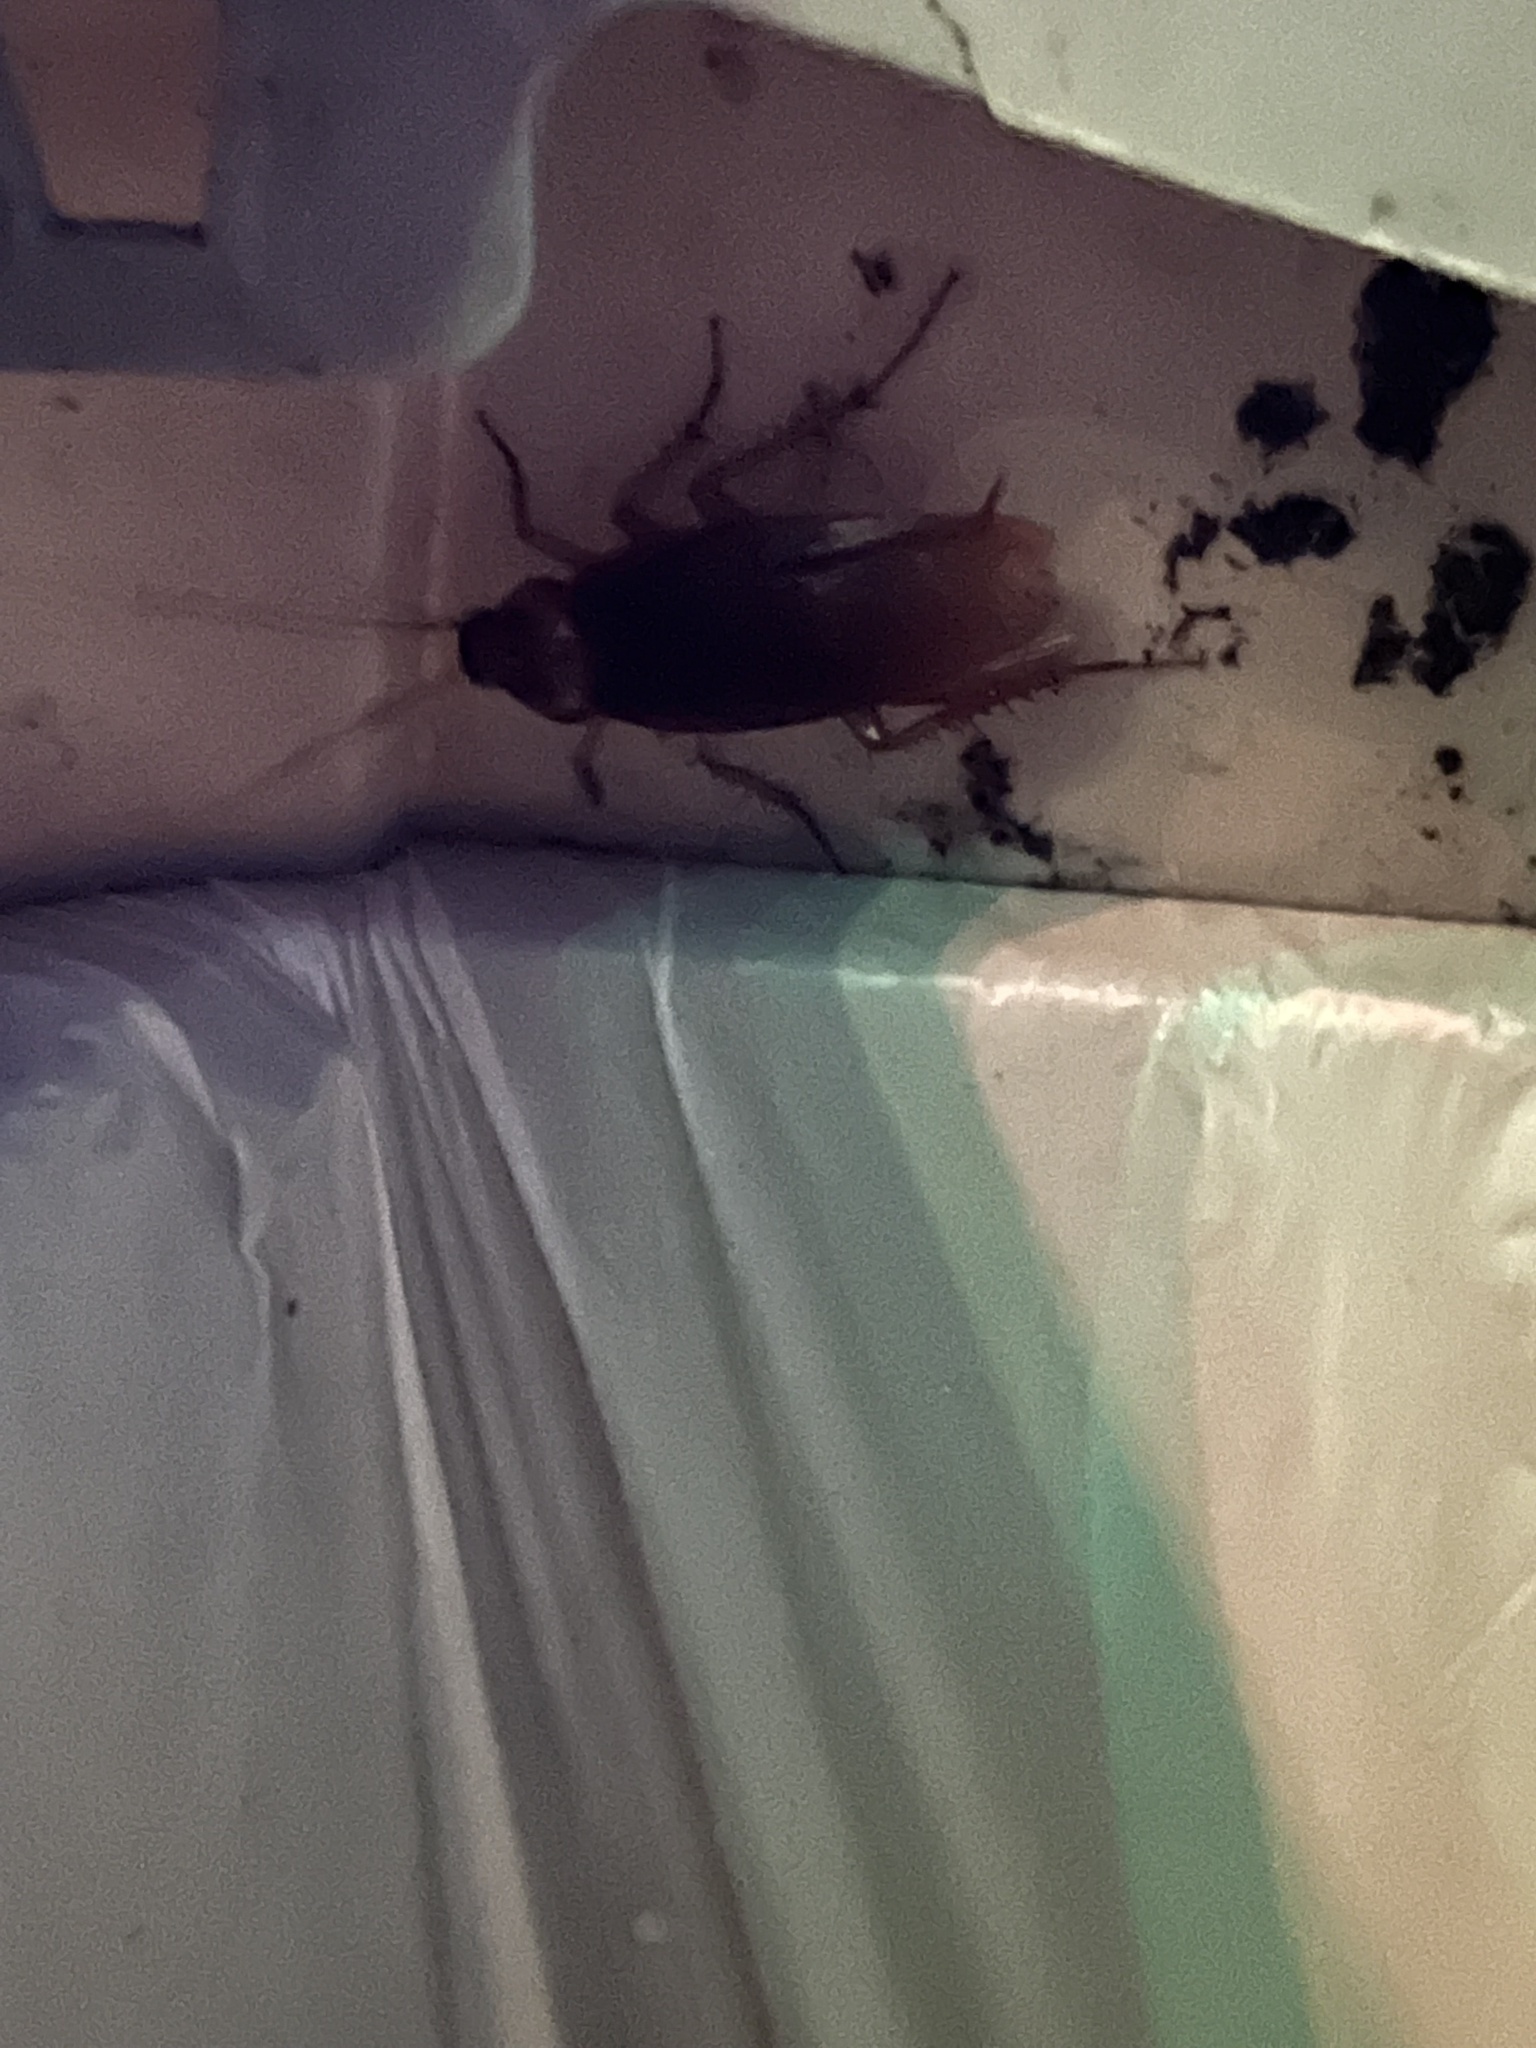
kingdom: Animalia
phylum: Arthropoda
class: Insecta
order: Blattodea
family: Blattidae
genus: Periplaneta
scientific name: Periplaneta americana
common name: American cockroach
